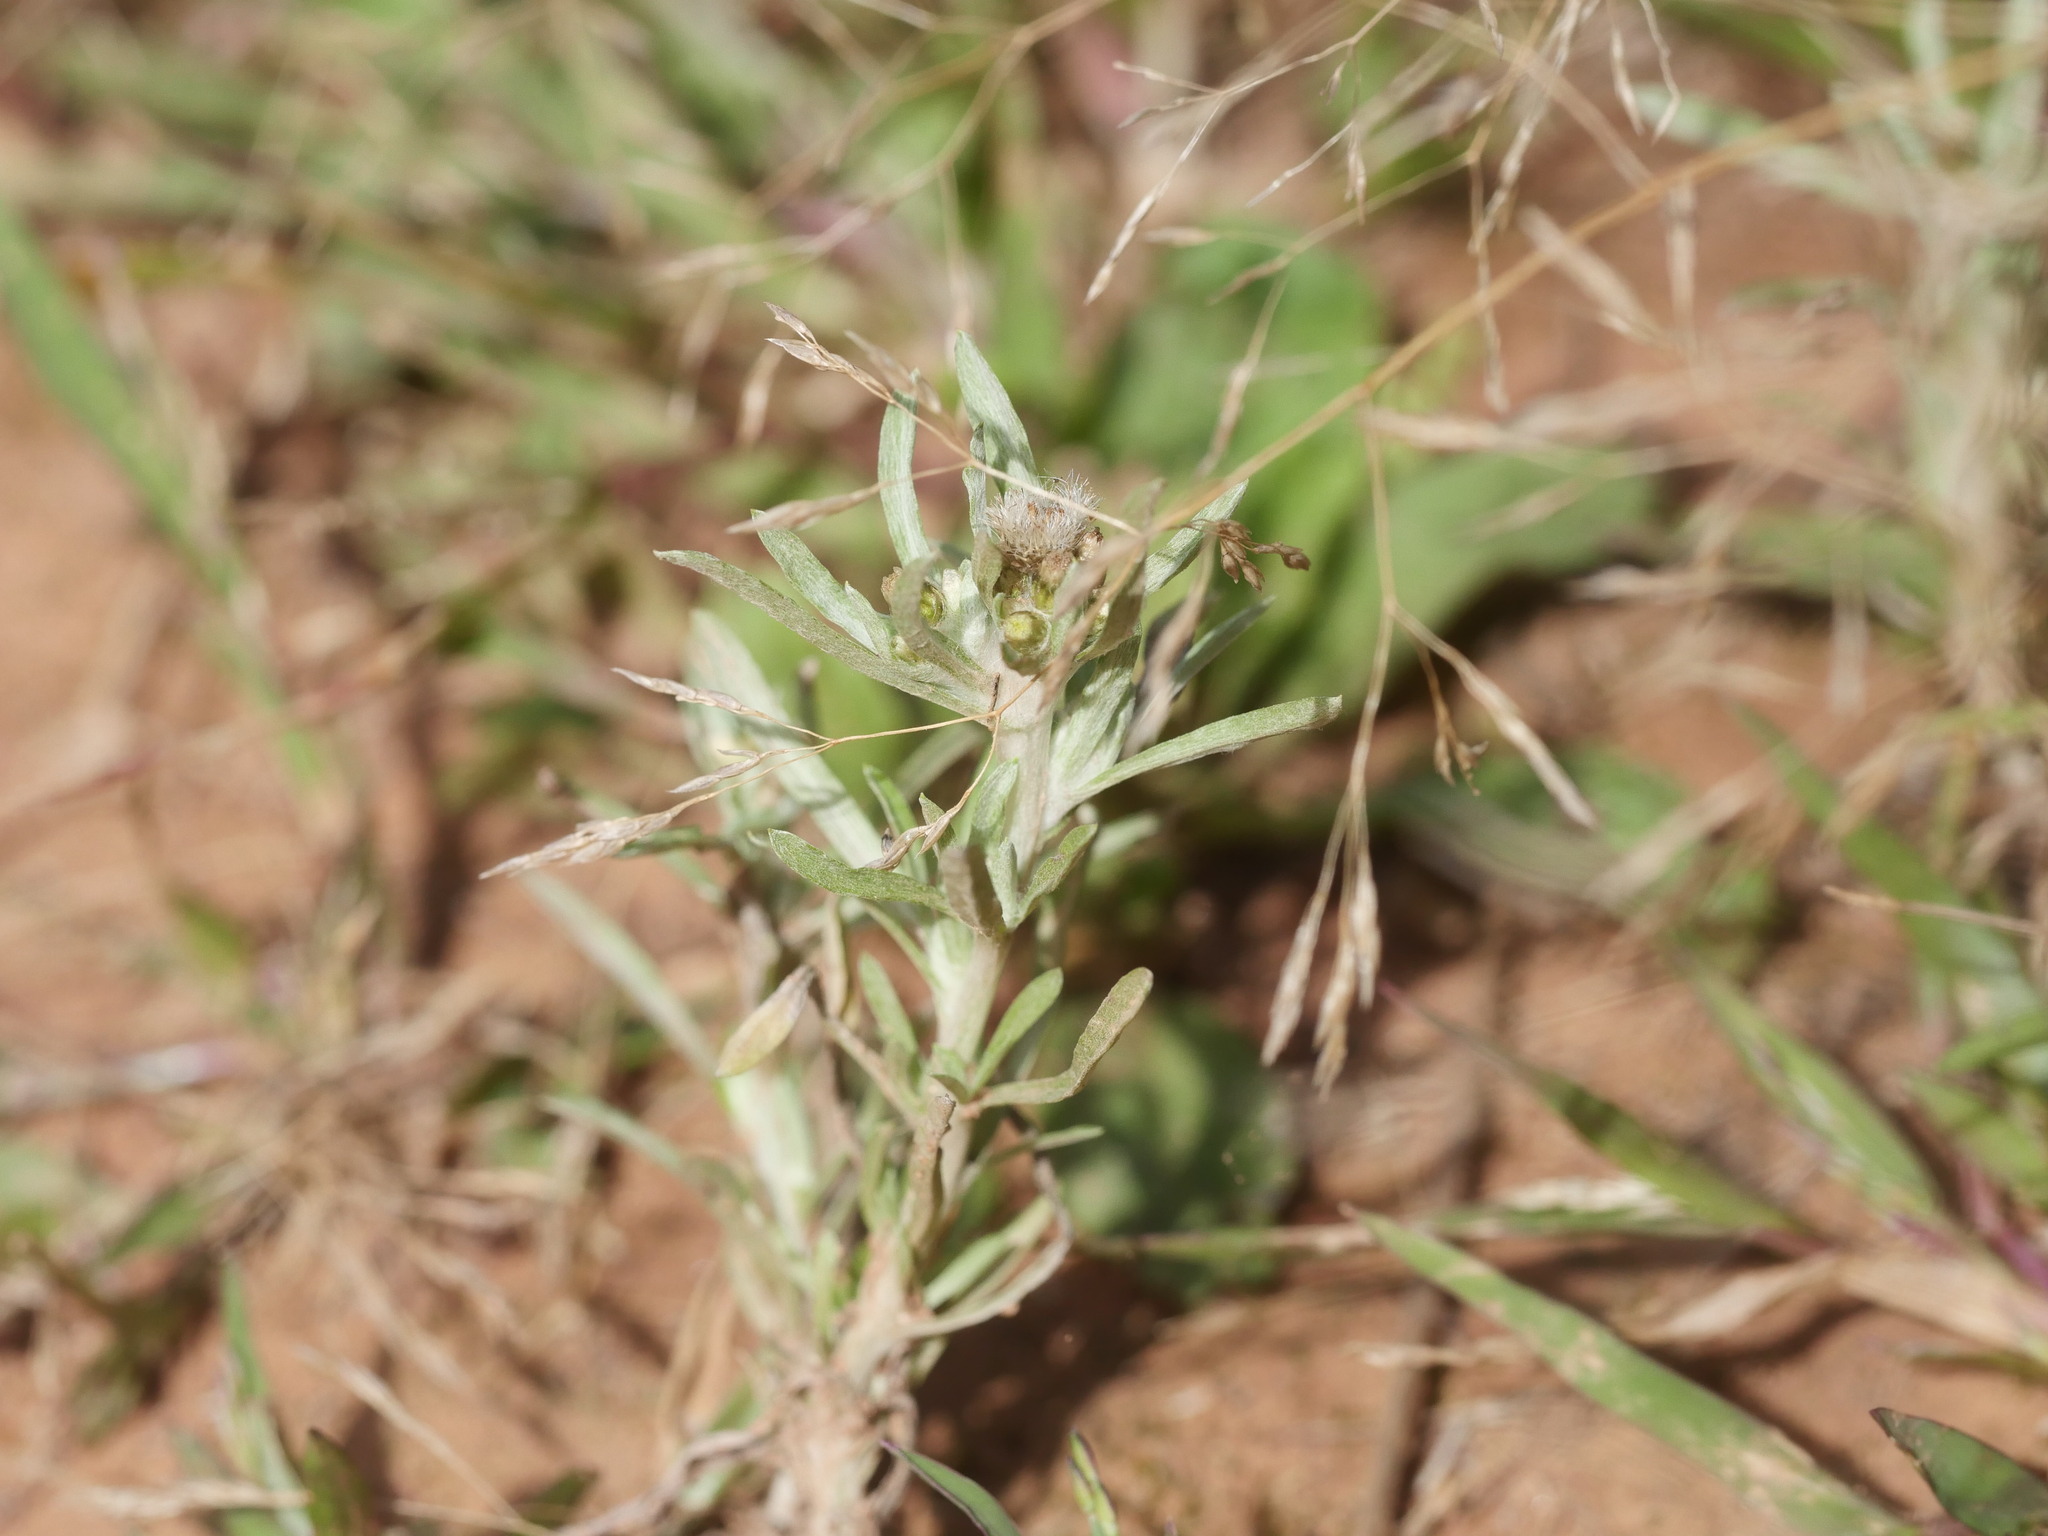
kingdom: Plantae
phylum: Tracheophyta
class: Magnoliopsida
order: Asterales
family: Asteraceae
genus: Gnaphalium
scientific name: Gnaphalium uliginosum
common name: Marsh cudweed
